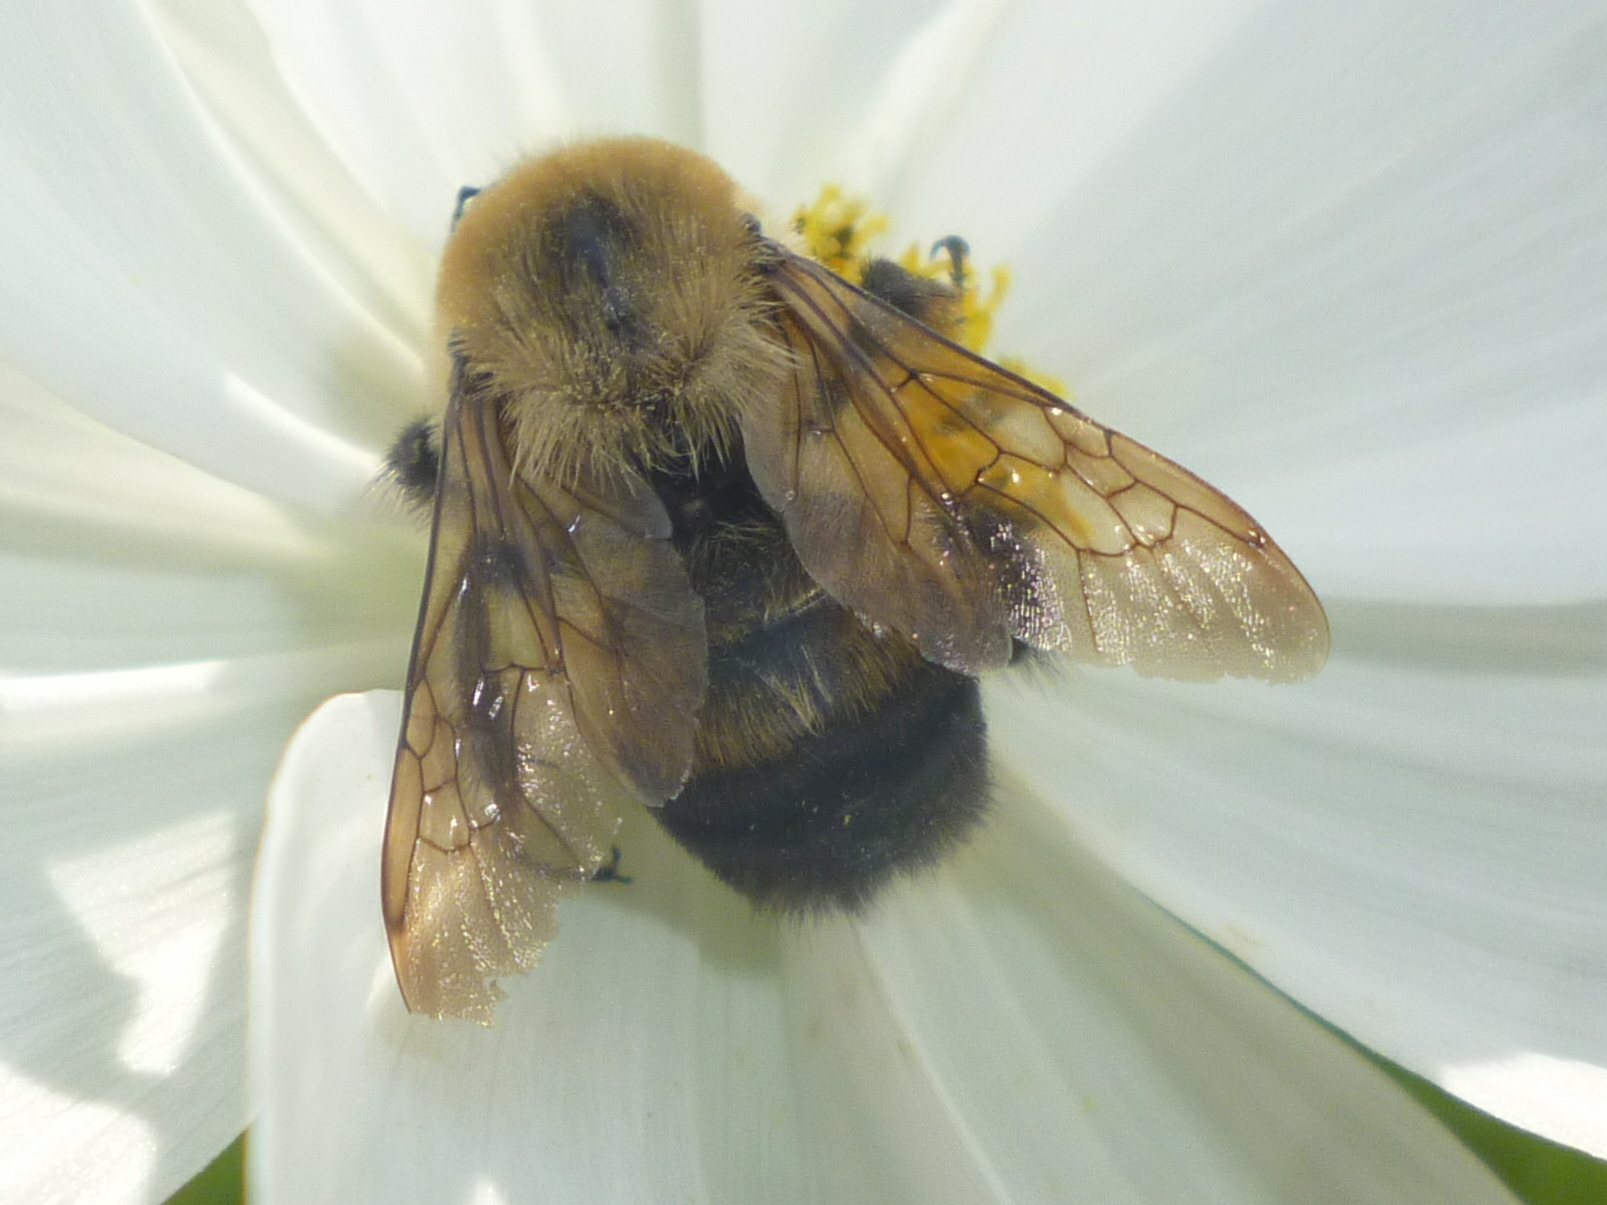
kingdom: Animalia
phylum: Arthropoda
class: Insecta
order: Hymenoptera
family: Apidae
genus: Bombus
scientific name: Bombus griseocollis
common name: Brown-belted bumble bee
